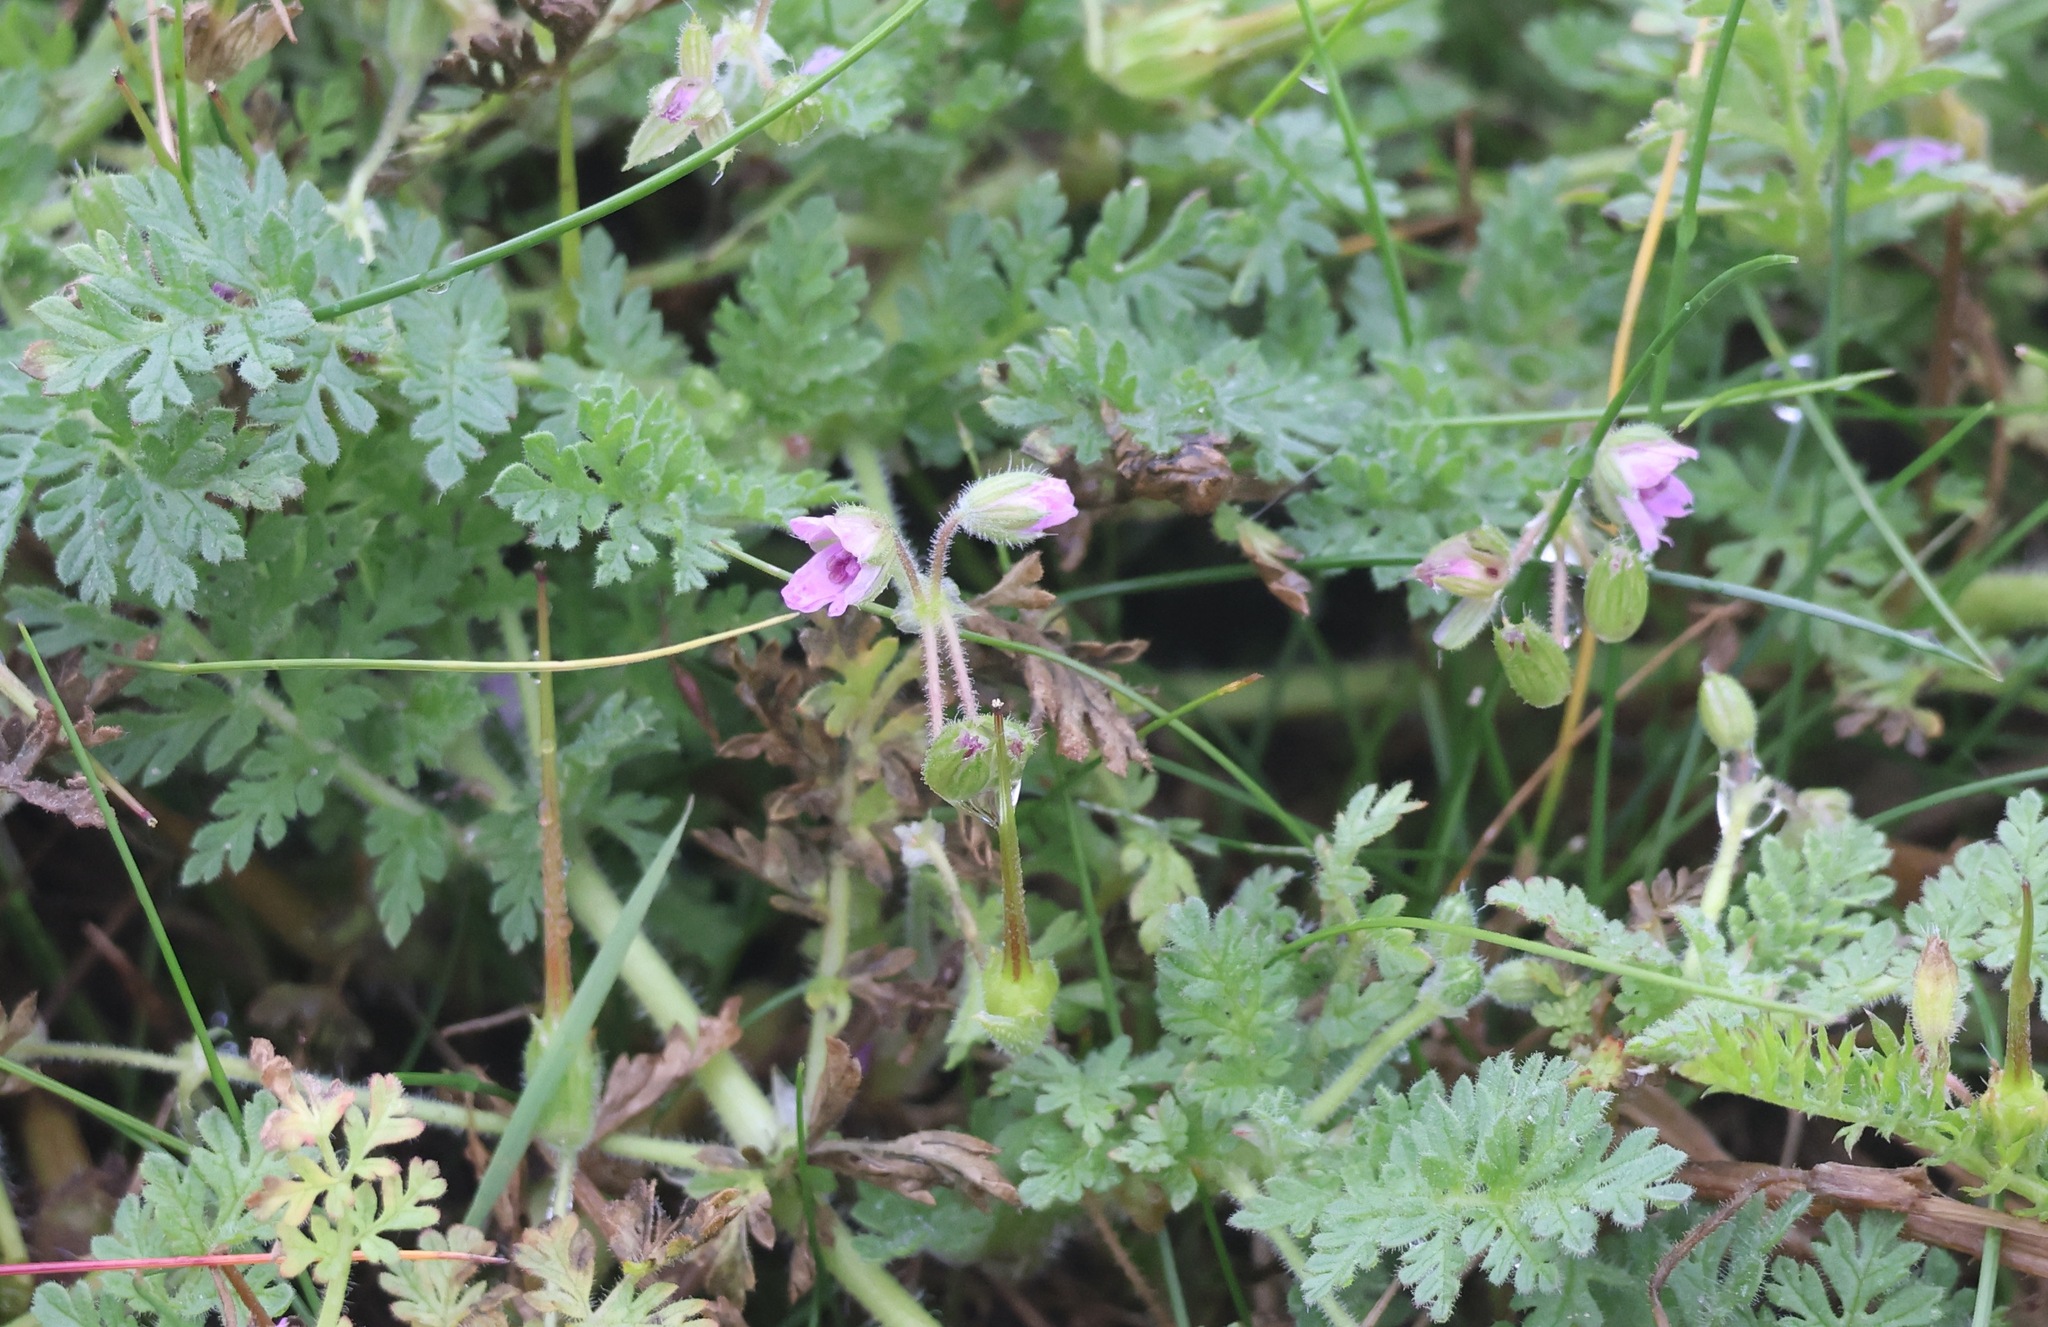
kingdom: Plantae
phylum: Tracheophyta
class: Magnoliopsida
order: Geraniales
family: Geraniaceae
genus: Erodium
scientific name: Erodium cicutarium
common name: Common stork's-bill
